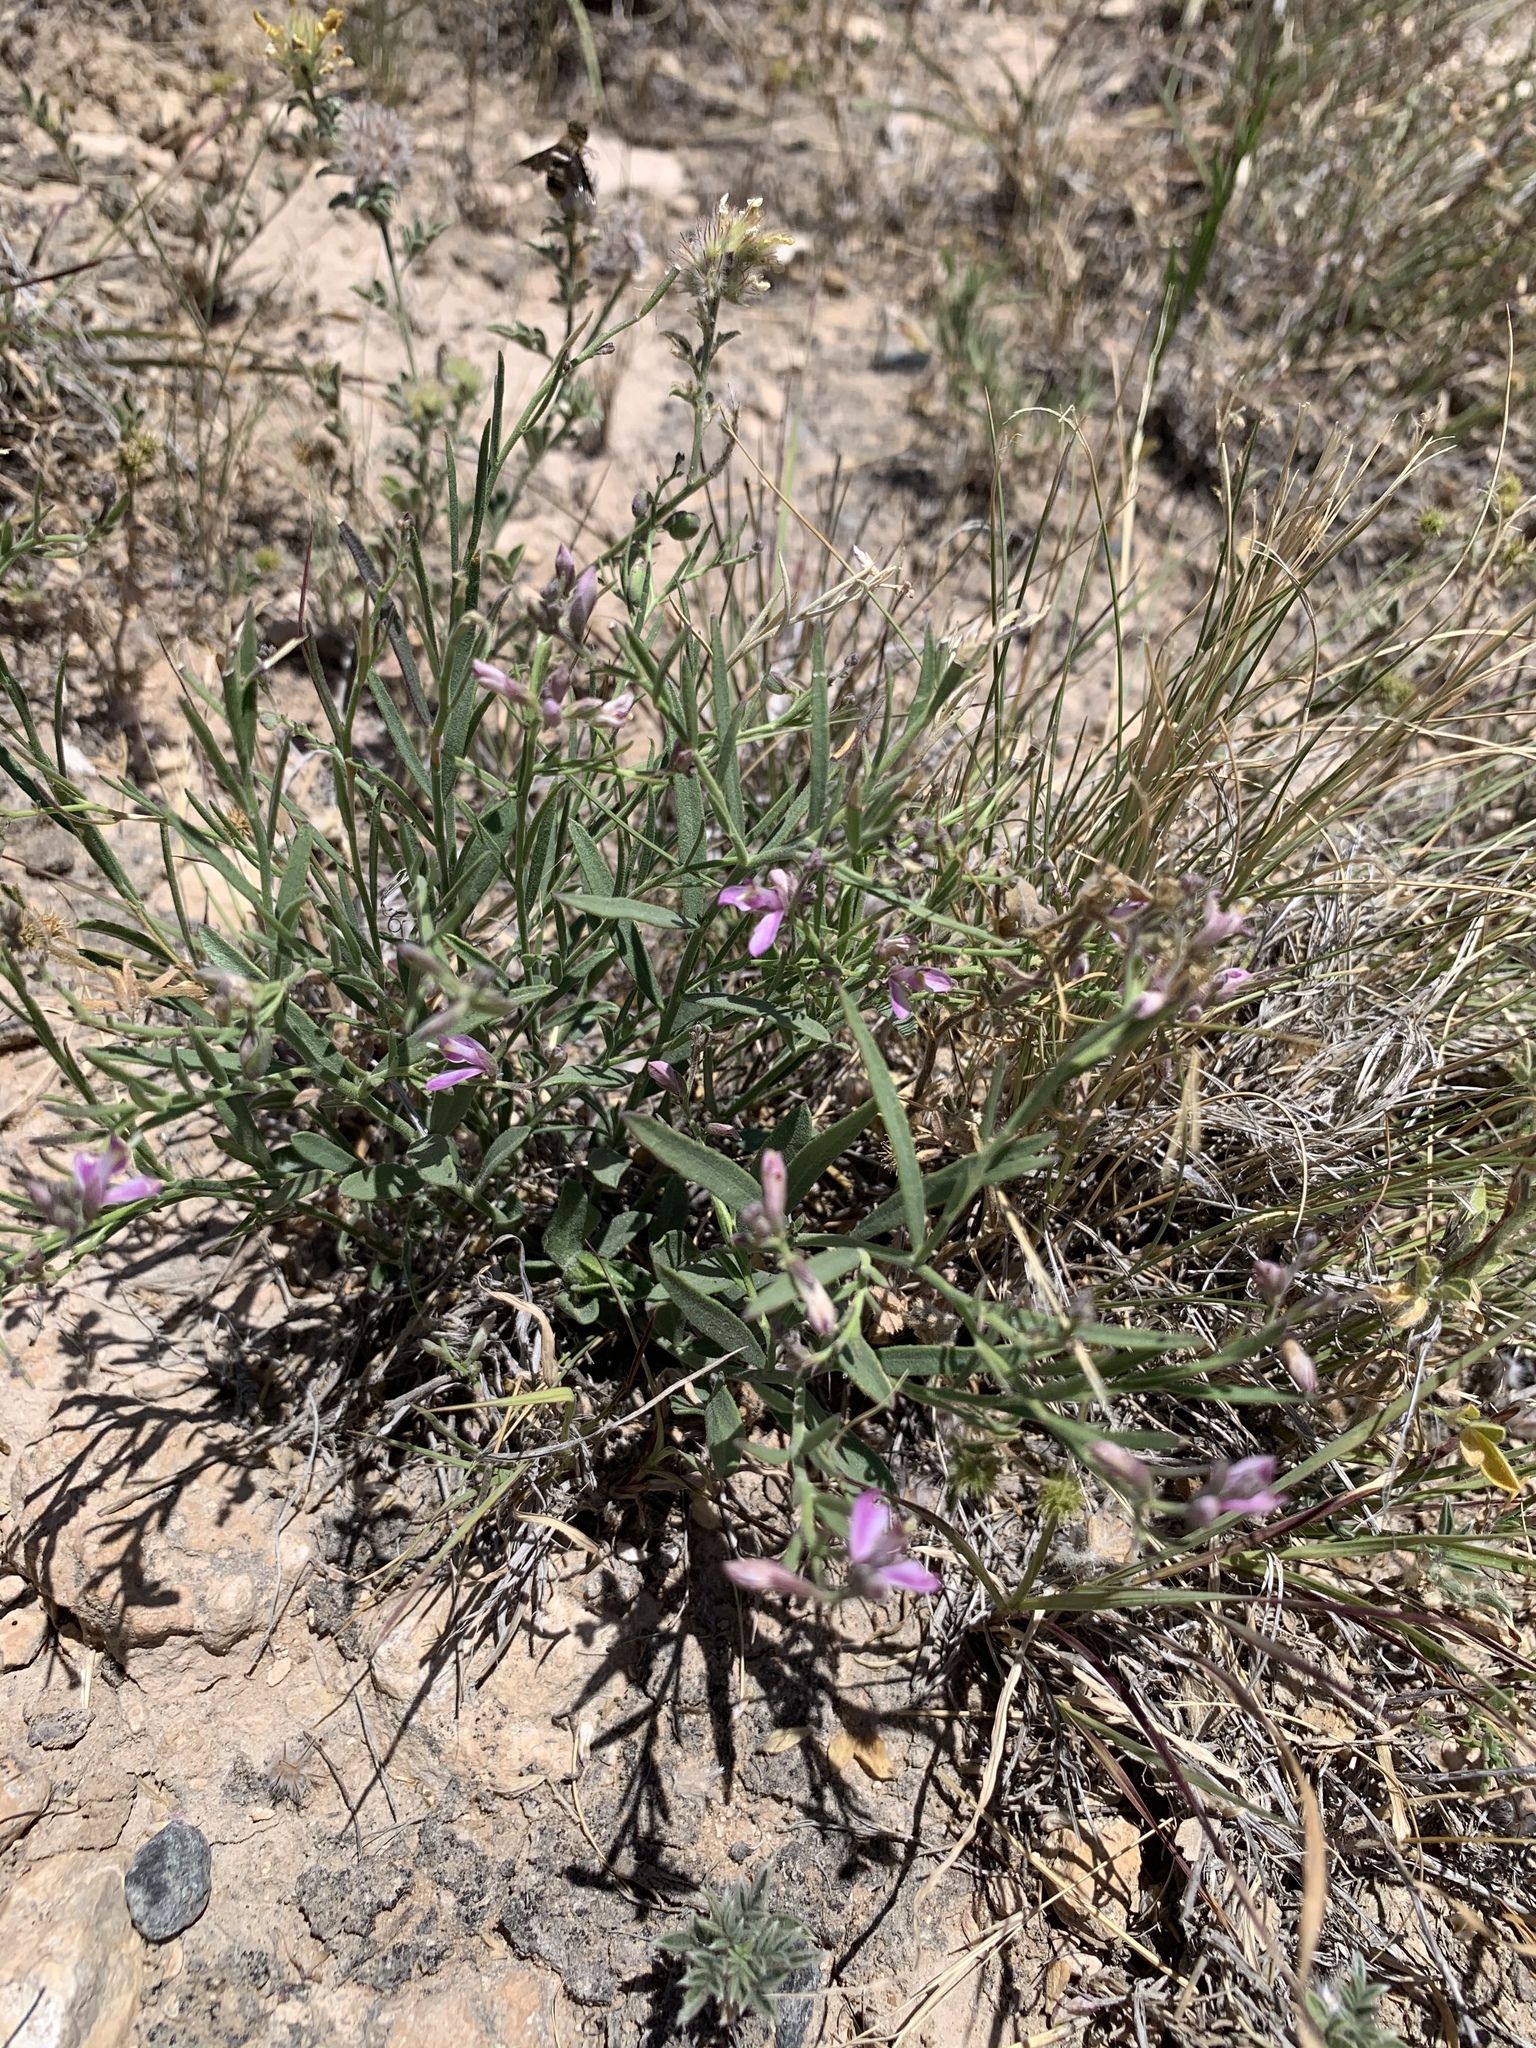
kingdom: Plantae
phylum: Tracheophyta
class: Magnoliopsida
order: Fabales
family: Polygalaceae
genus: Rhinotropis
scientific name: Rhinotropis lindheimeri
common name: Shrubby milkwort
